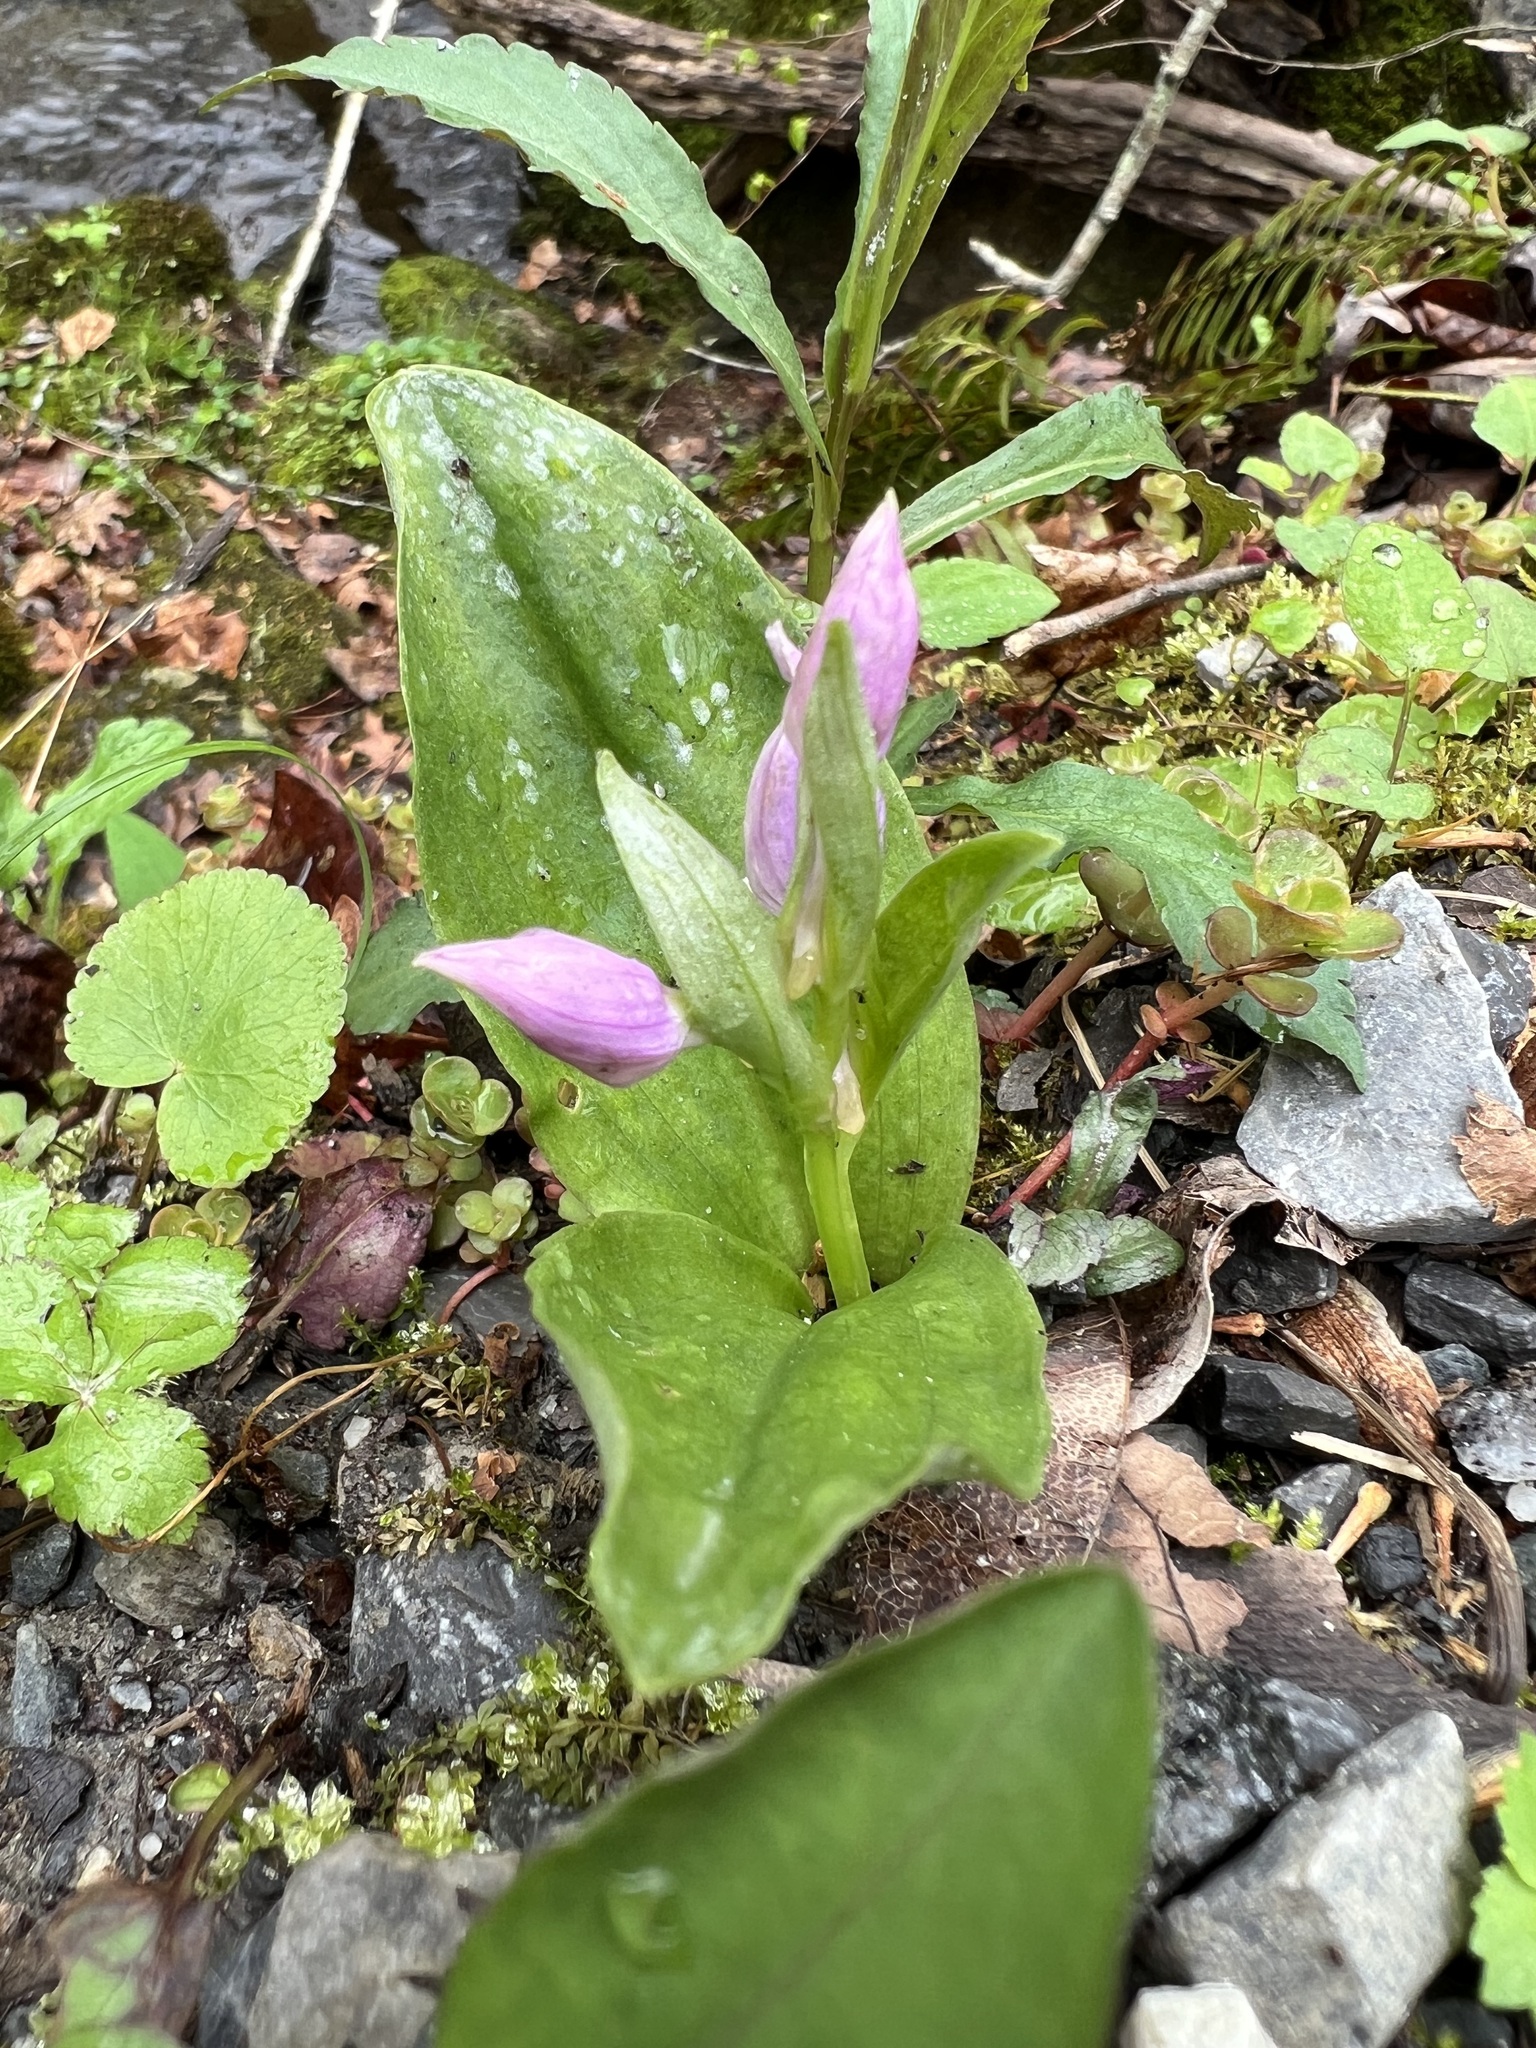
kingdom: Plantae
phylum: Tracheophyta
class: Liliopsida
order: Asparagales
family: Orchidaceae
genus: Galearis
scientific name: Galearis spectabilis
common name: Purple-hooded orchis
